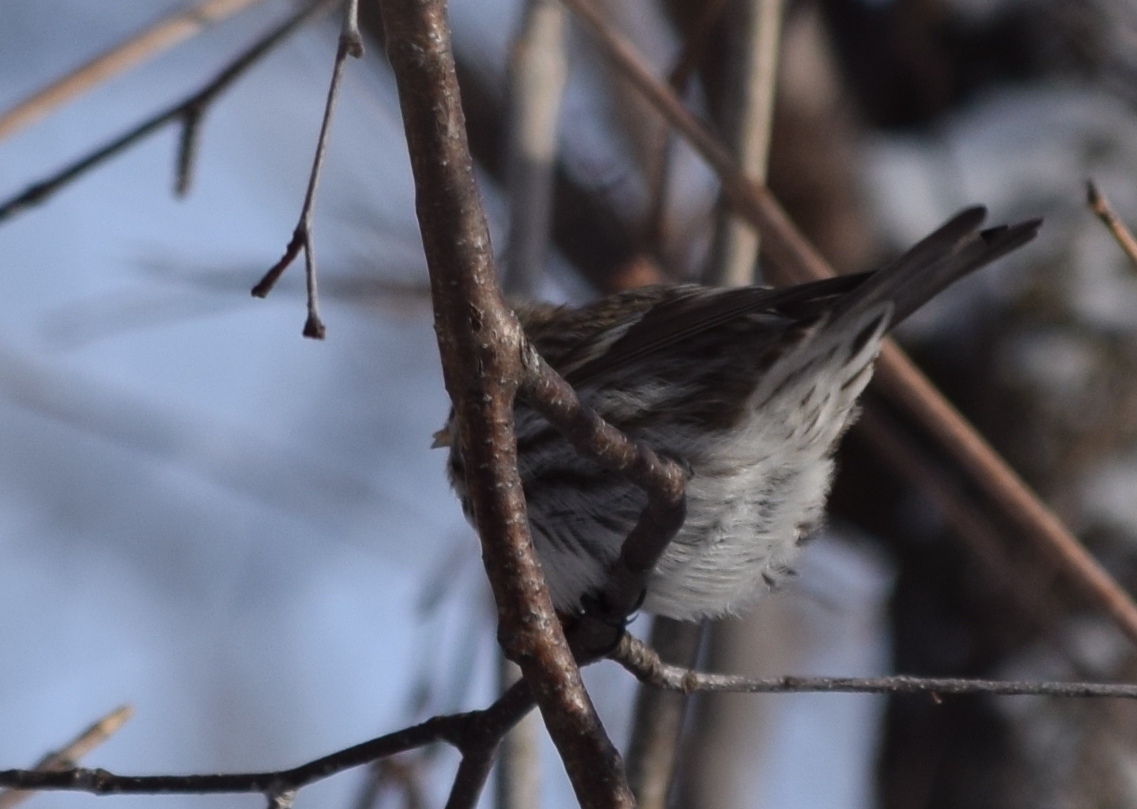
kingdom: Animalia
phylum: Chordata
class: Aves
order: Passeriformes
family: Fringillidae
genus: Acanthis
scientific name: Acanthis flammea
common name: Common redpoll
